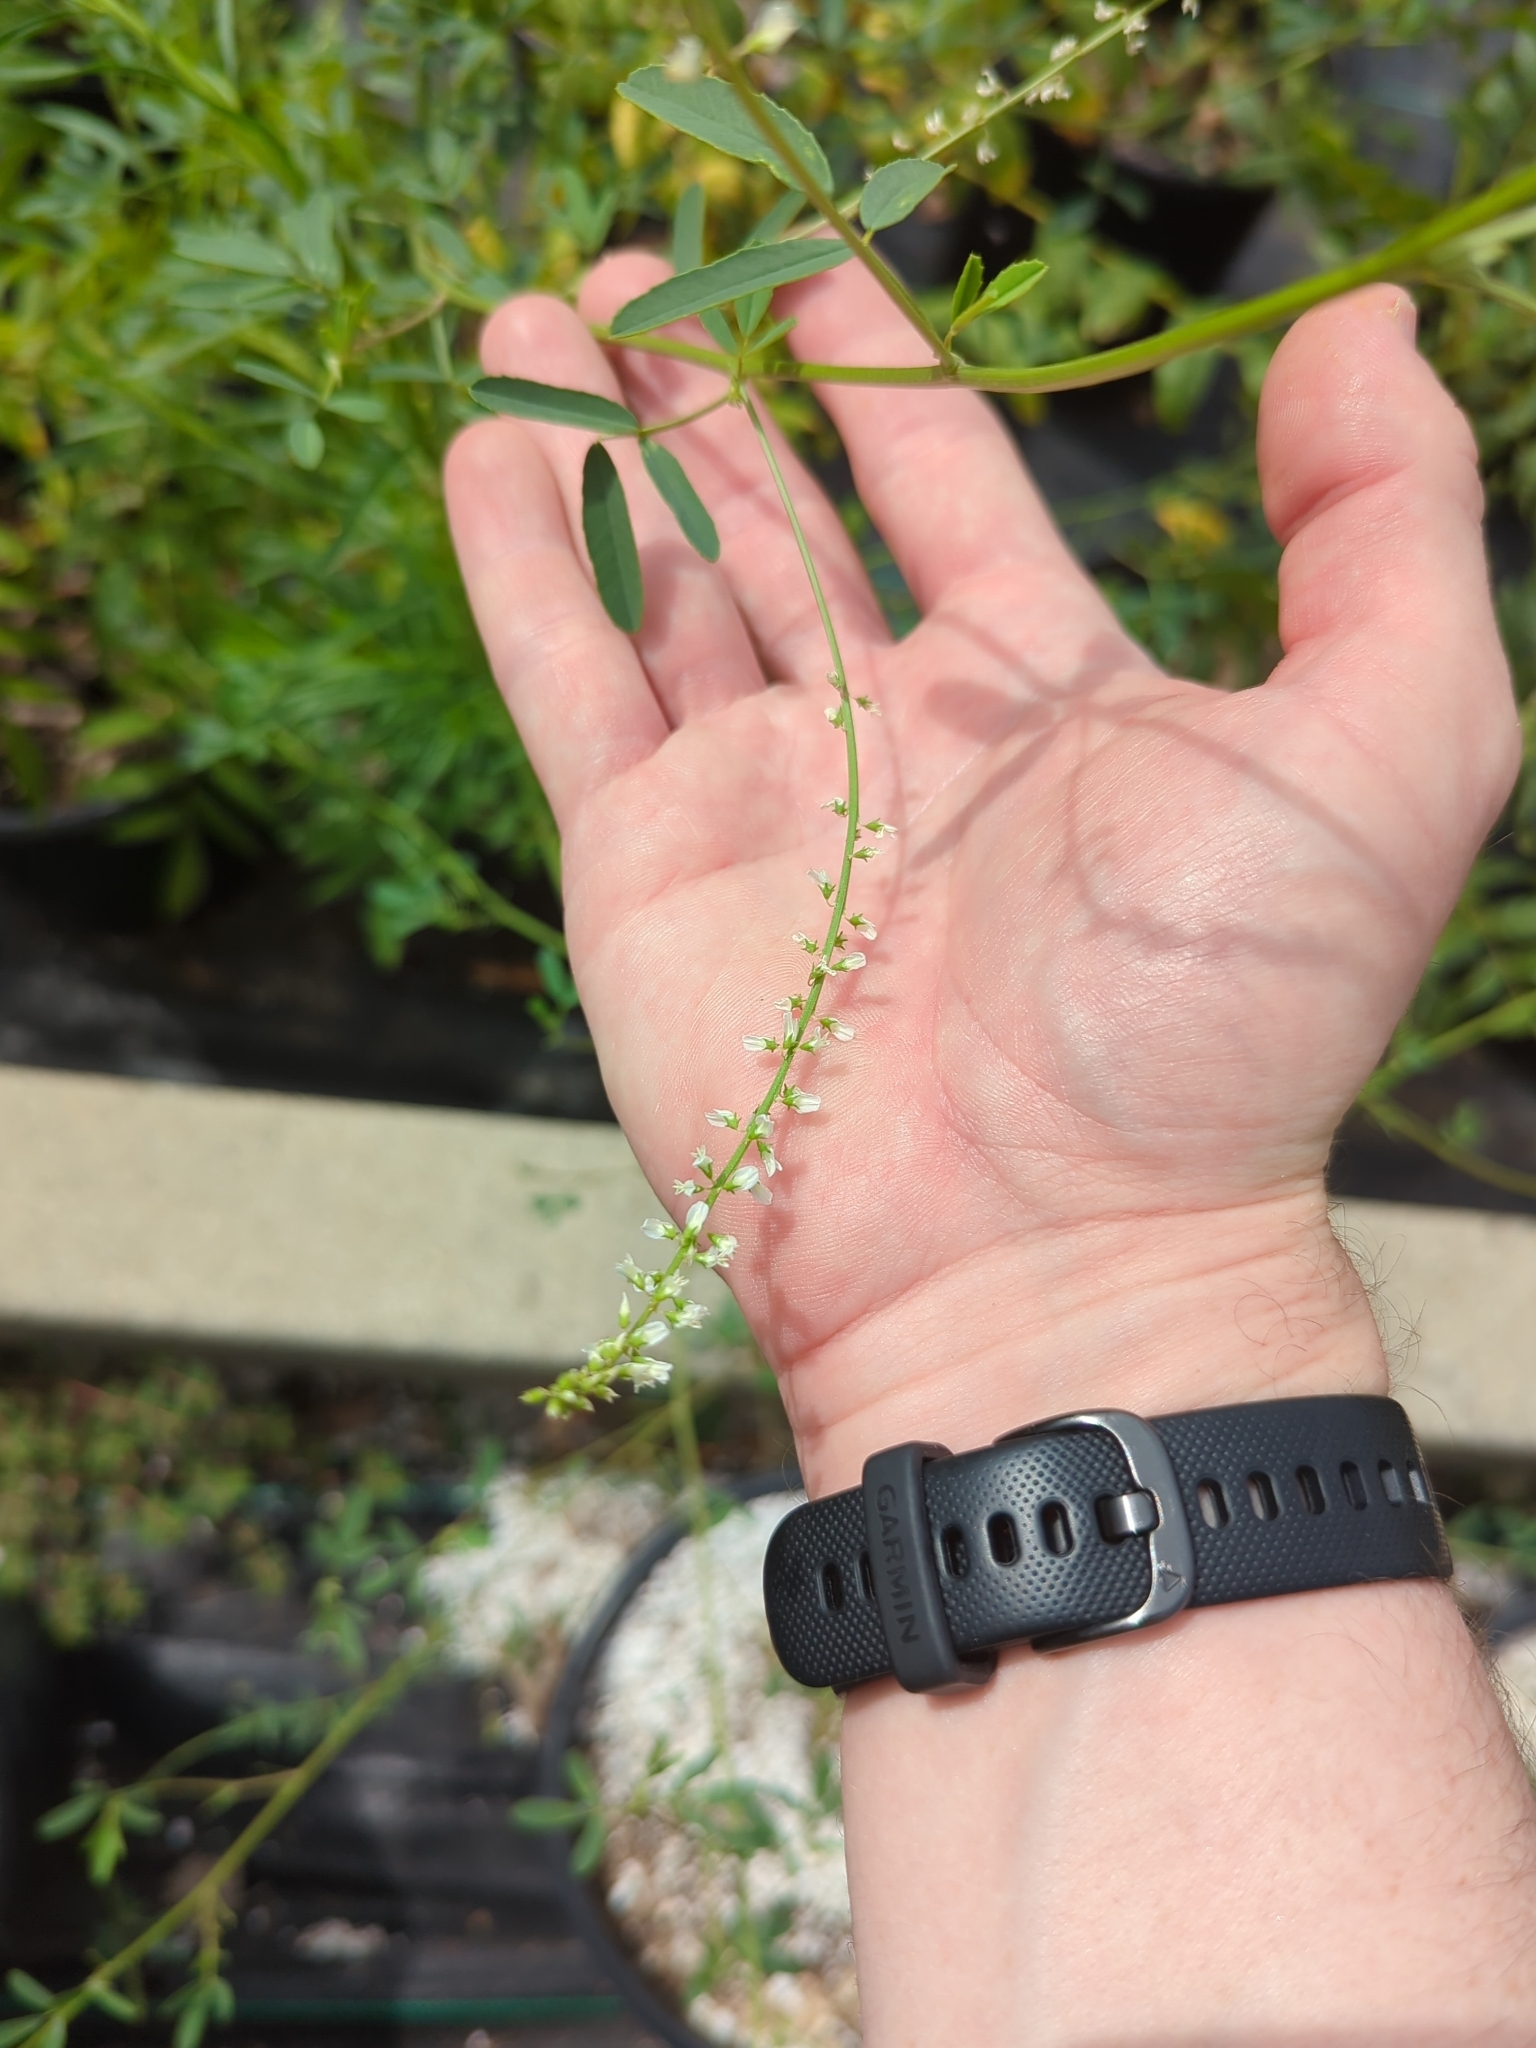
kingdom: Plantae
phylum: Tracheophyta
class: Magnoliopsida
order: Fabales
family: Fabaceae
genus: Melilotus
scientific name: Melilotus albus
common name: White melilot
